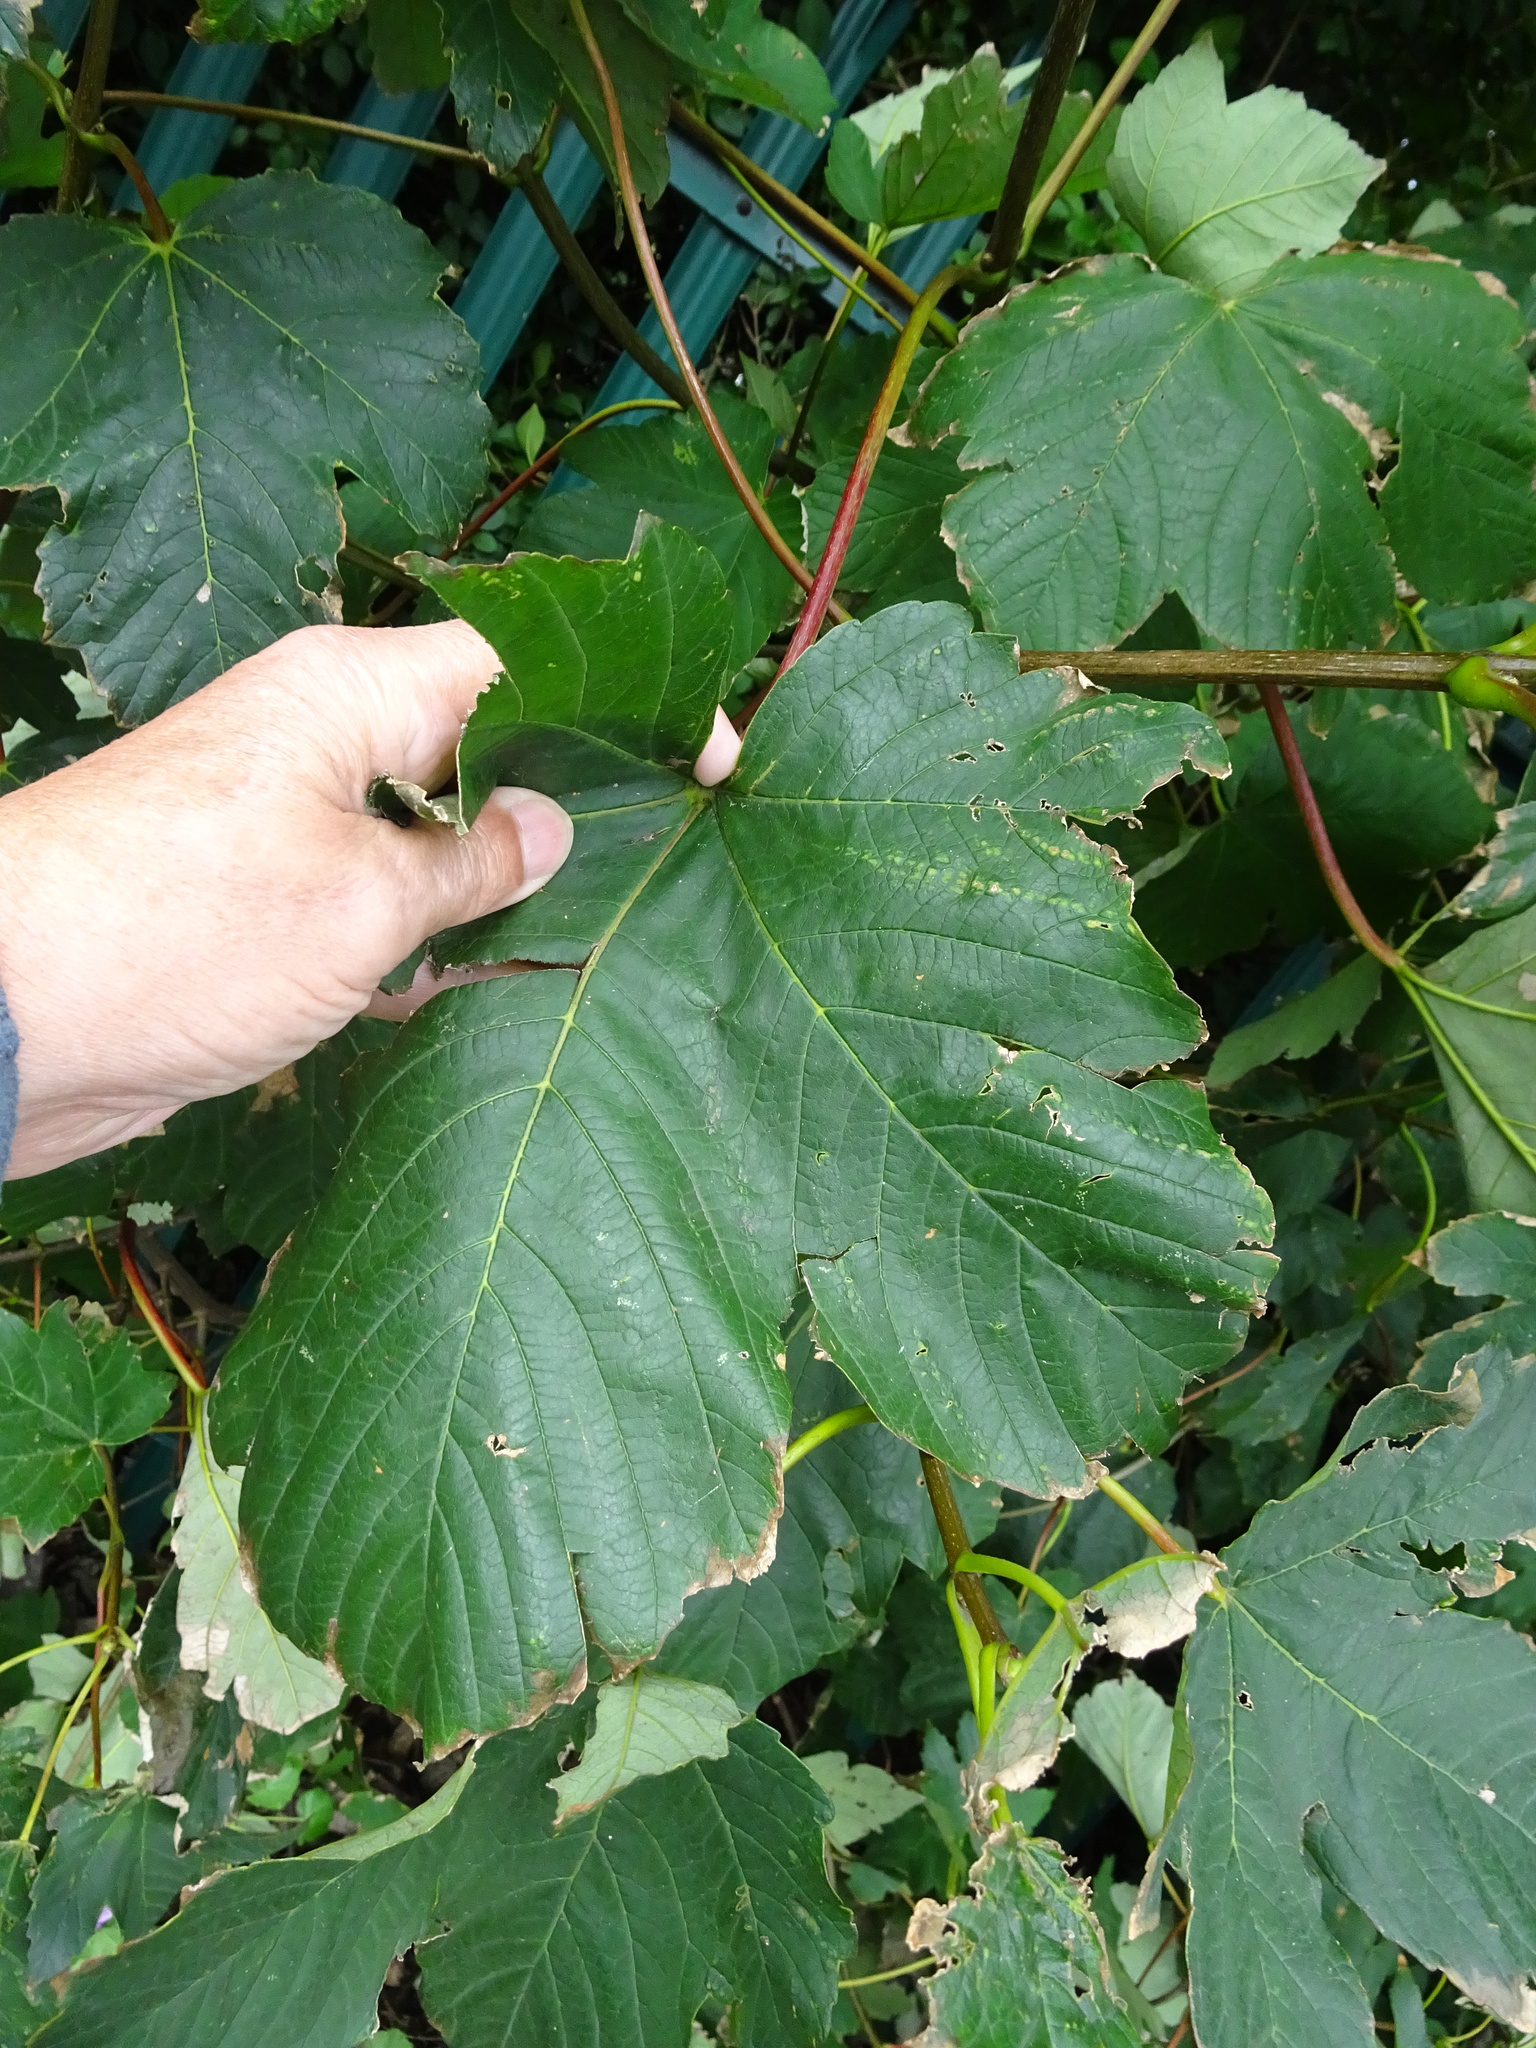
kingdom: Plantae
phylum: Tracheophyta
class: Magnoliopsida
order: Sapindales
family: Sapindaceae
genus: Acer
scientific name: Acer pseudoplatanus
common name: Sycamore
